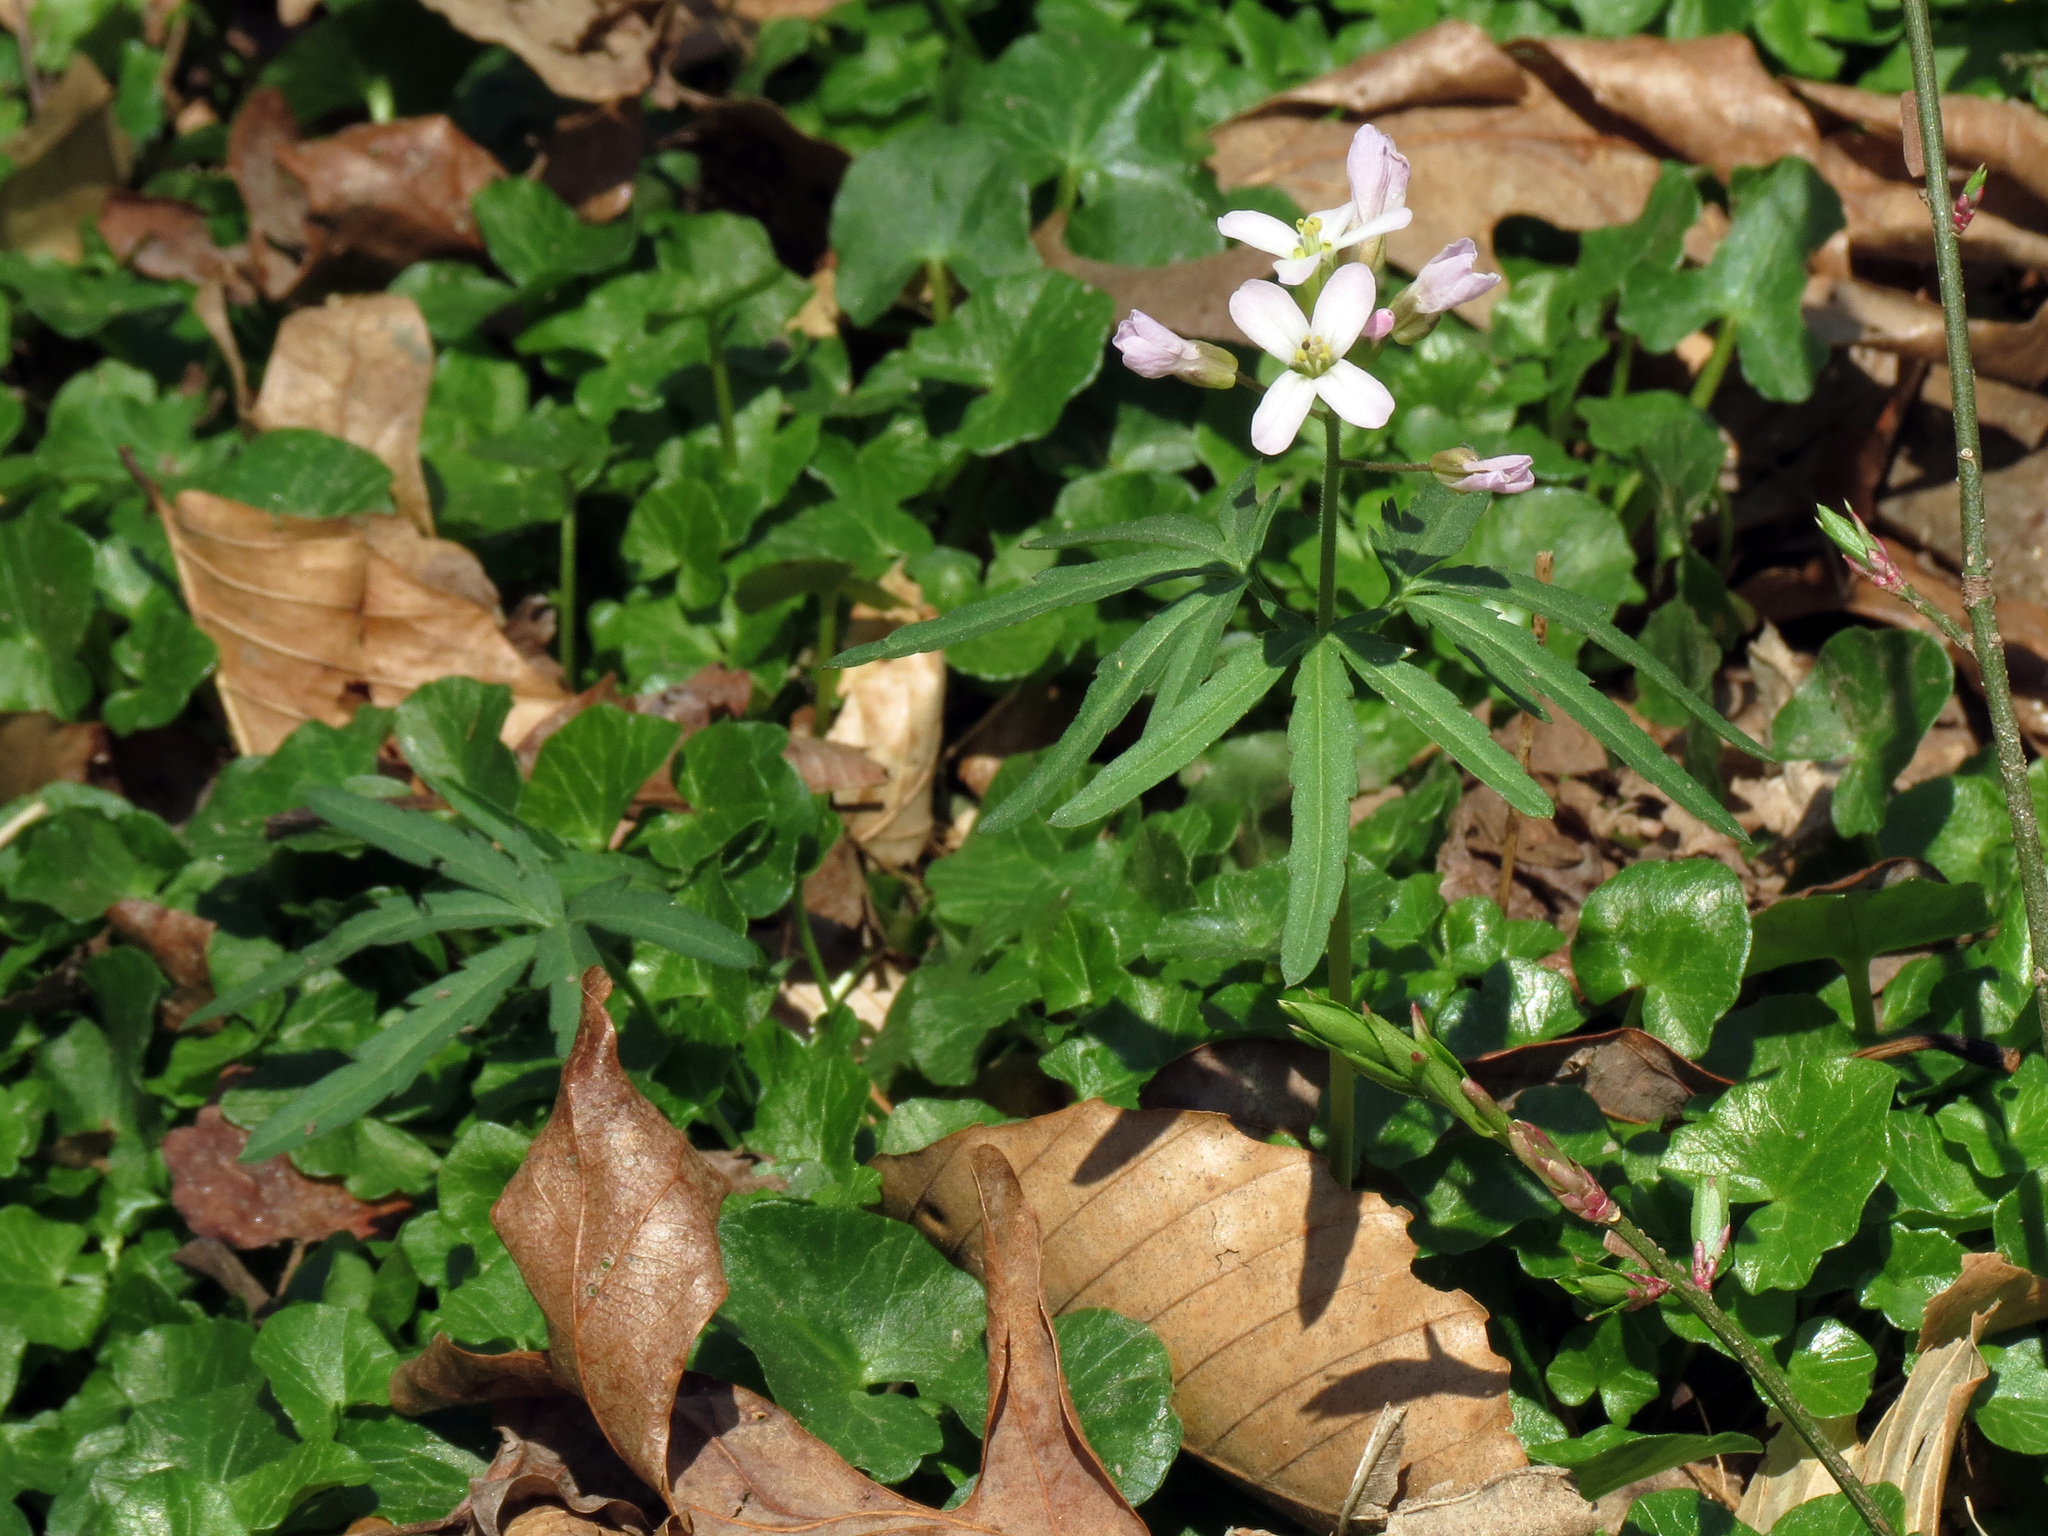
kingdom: Plantae
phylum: Tracheophyta
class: Magnoliopsida
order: Brassicales
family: Brassicaceae
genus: Cardamine
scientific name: Cardamine concatenata
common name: Cut-leaf toothcup
